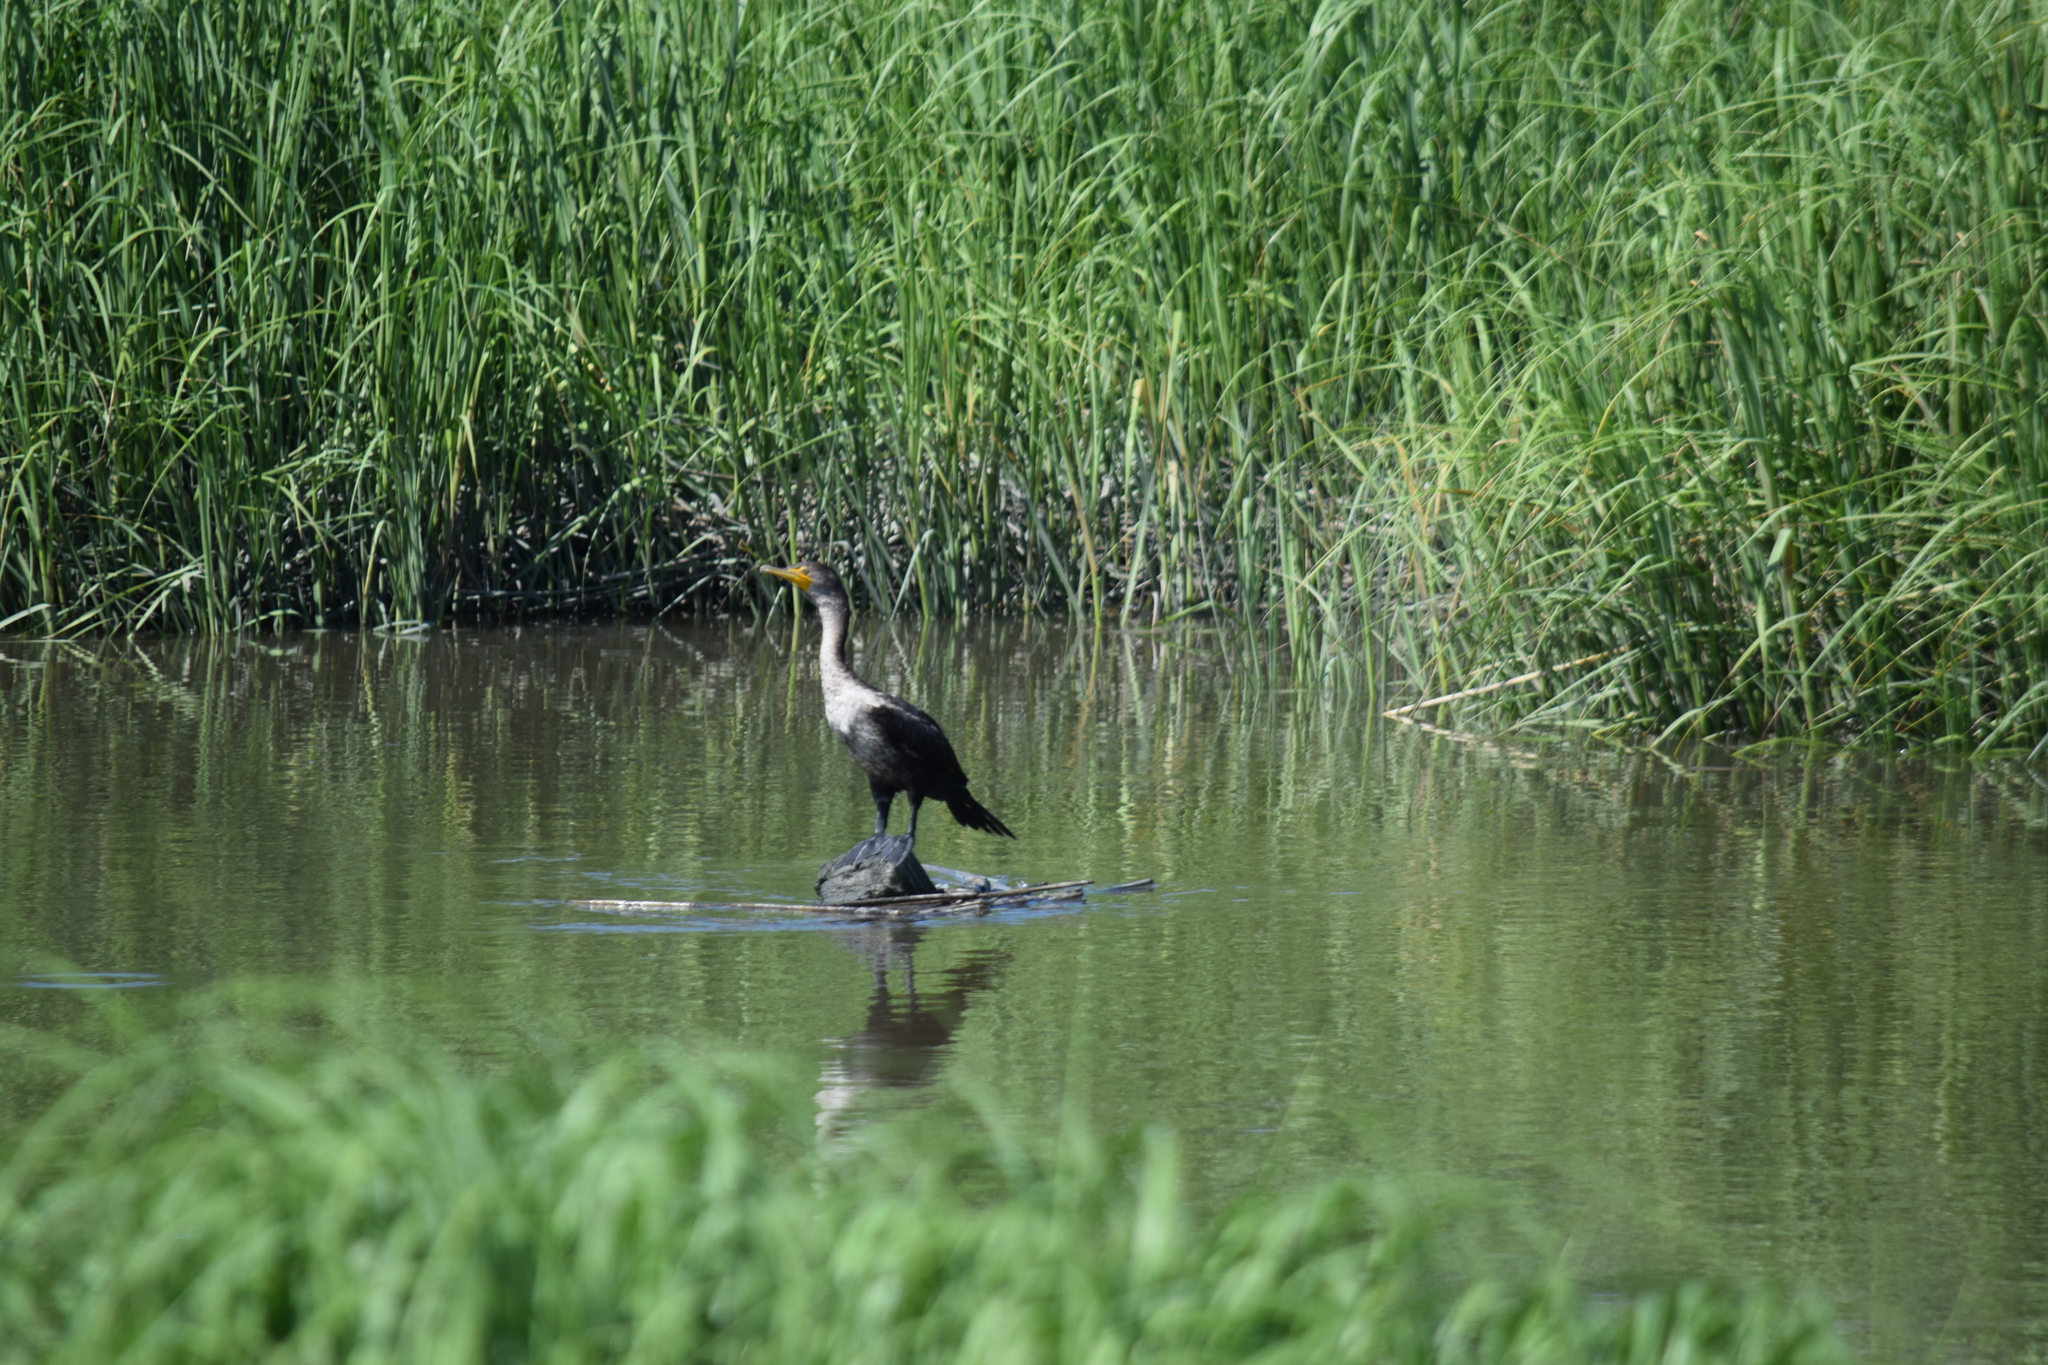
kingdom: Animalia
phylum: Chordata
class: Aves
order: Suliformes
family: Phalacrocoracidae
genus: Phalacrocorax
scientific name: Phalacrocorax auritus
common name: Double-crested cormorant
